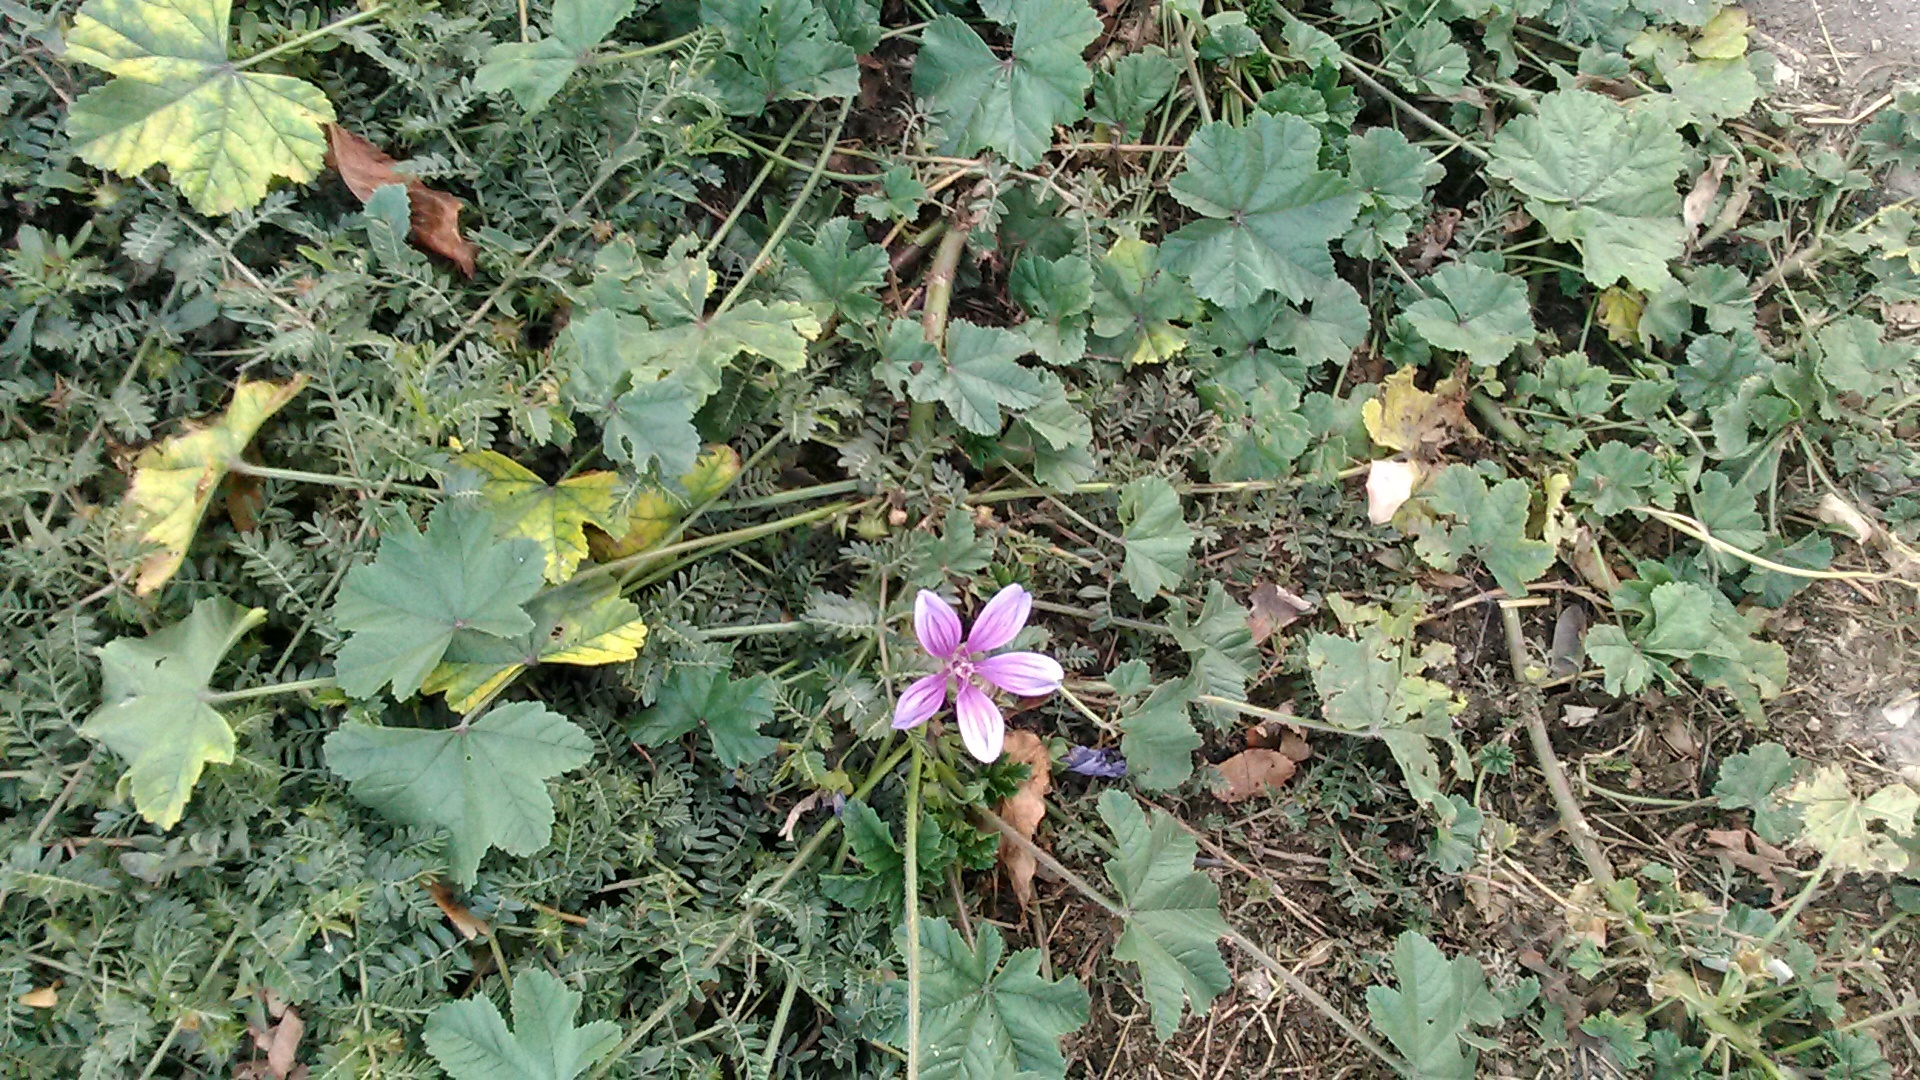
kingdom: Plantae
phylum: Tracheophyta
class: Magnoliopsida
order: Malvales
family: Malvaceae
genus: Malva
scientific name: Malva sylvestris
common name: Common mallow
